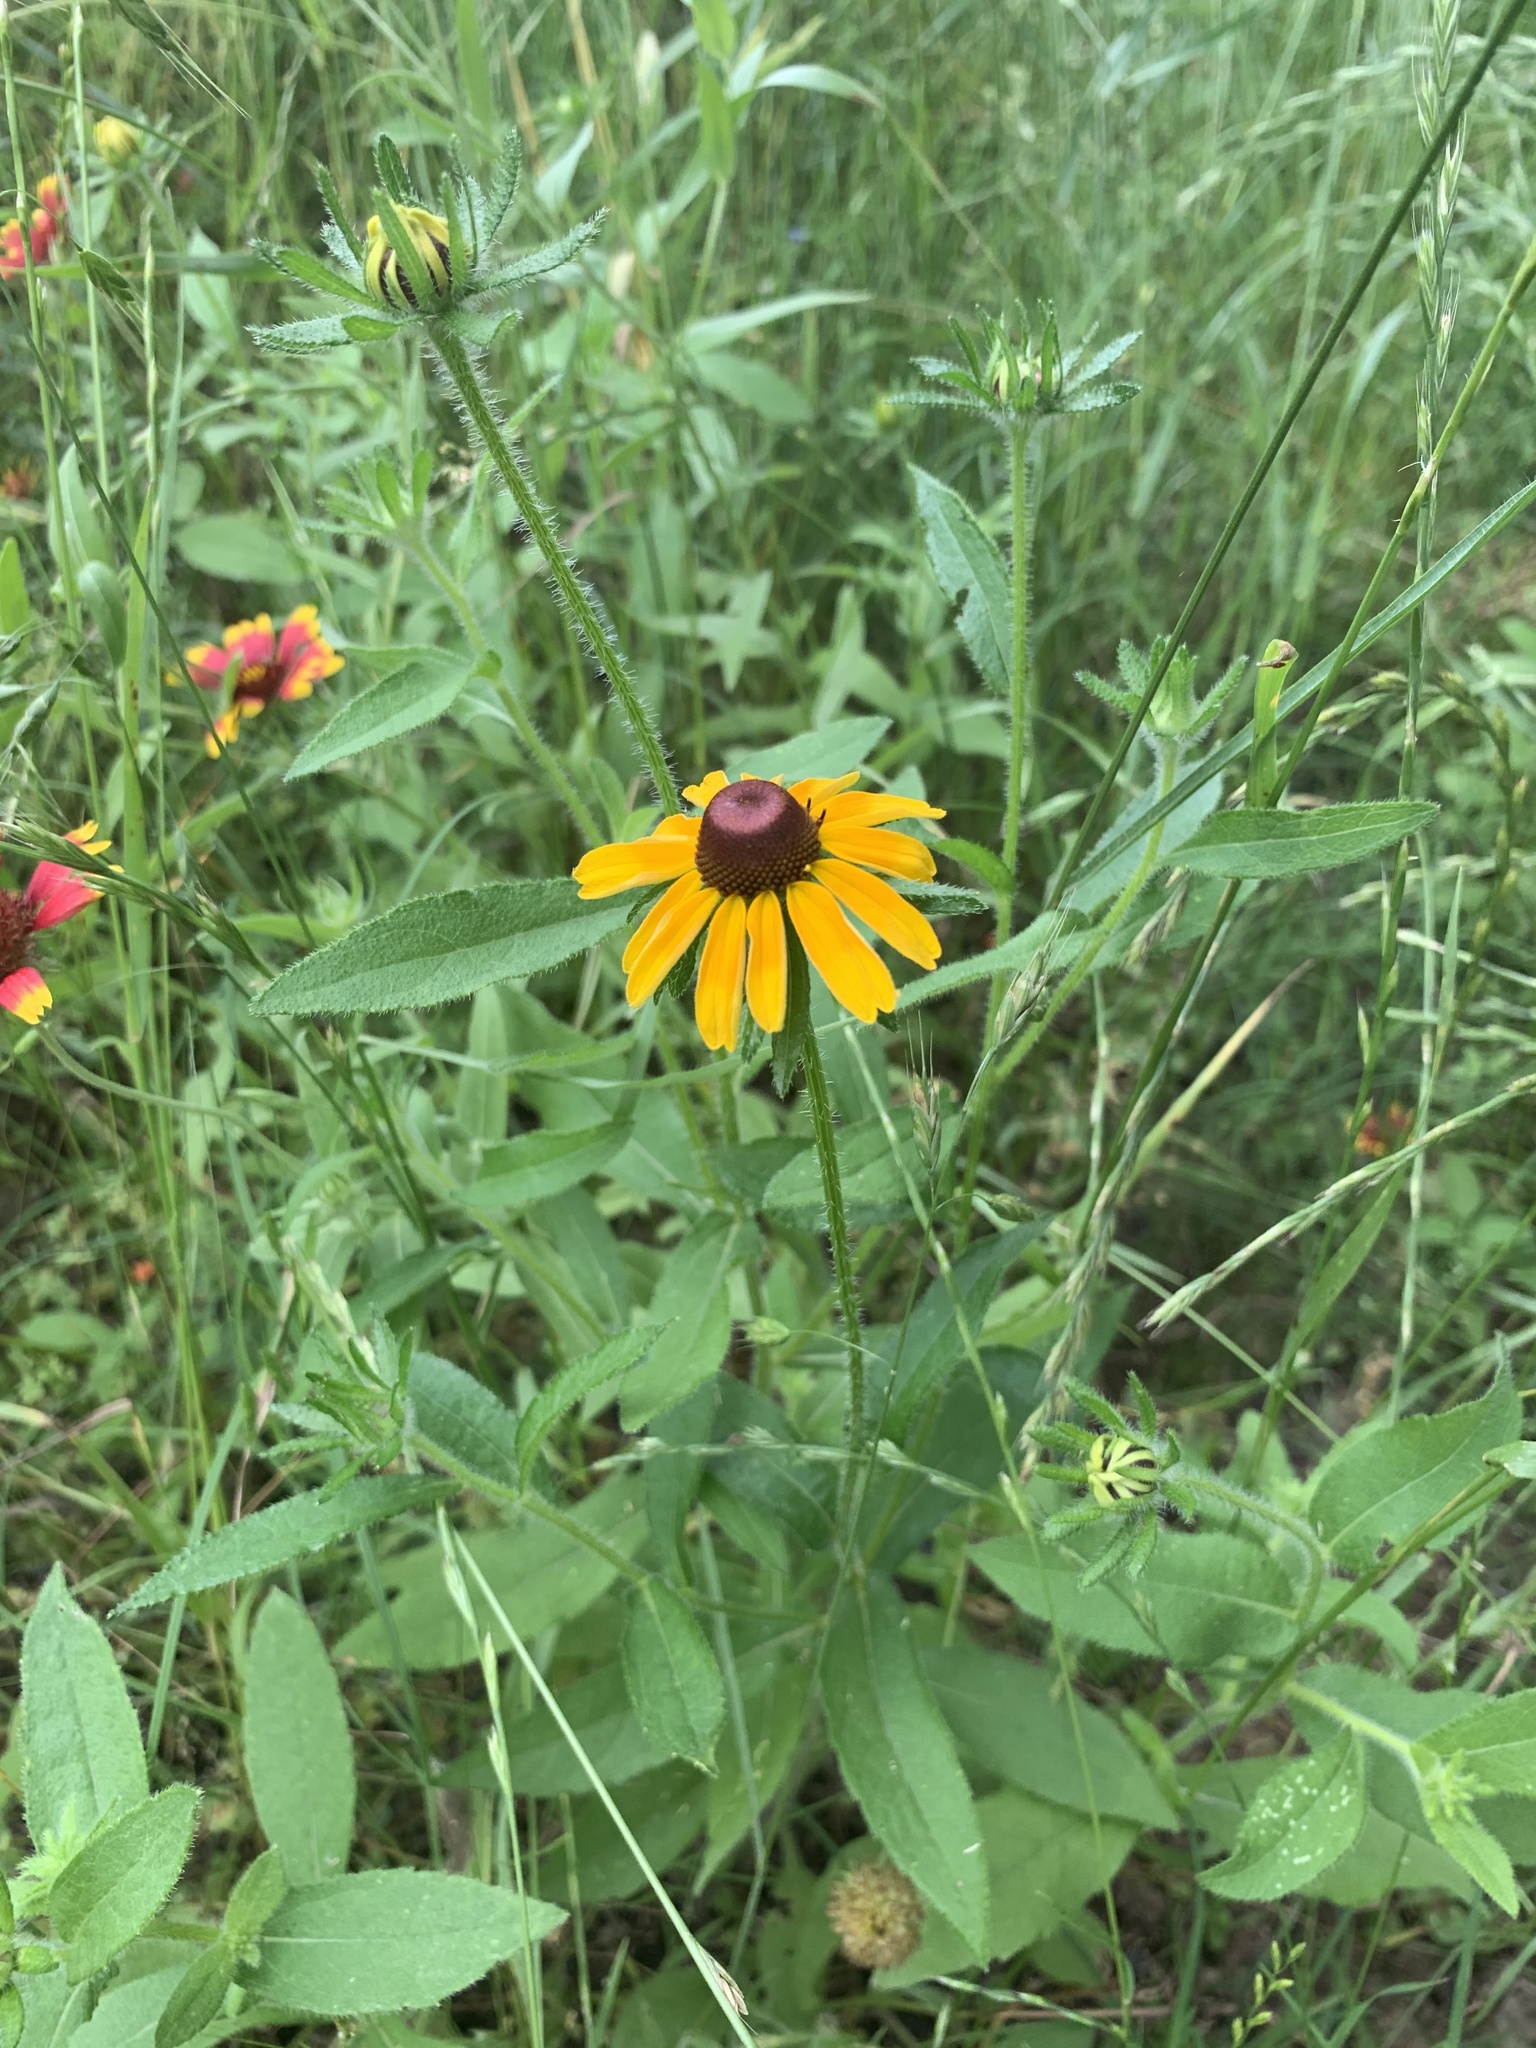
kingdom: Plantae
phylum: Tracheophyta
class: Magnoliopsida
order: Asterales
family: Asteraceae
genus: Rudbeckia
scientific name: Rudbeckia hirta
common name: Black-eyed-susan
